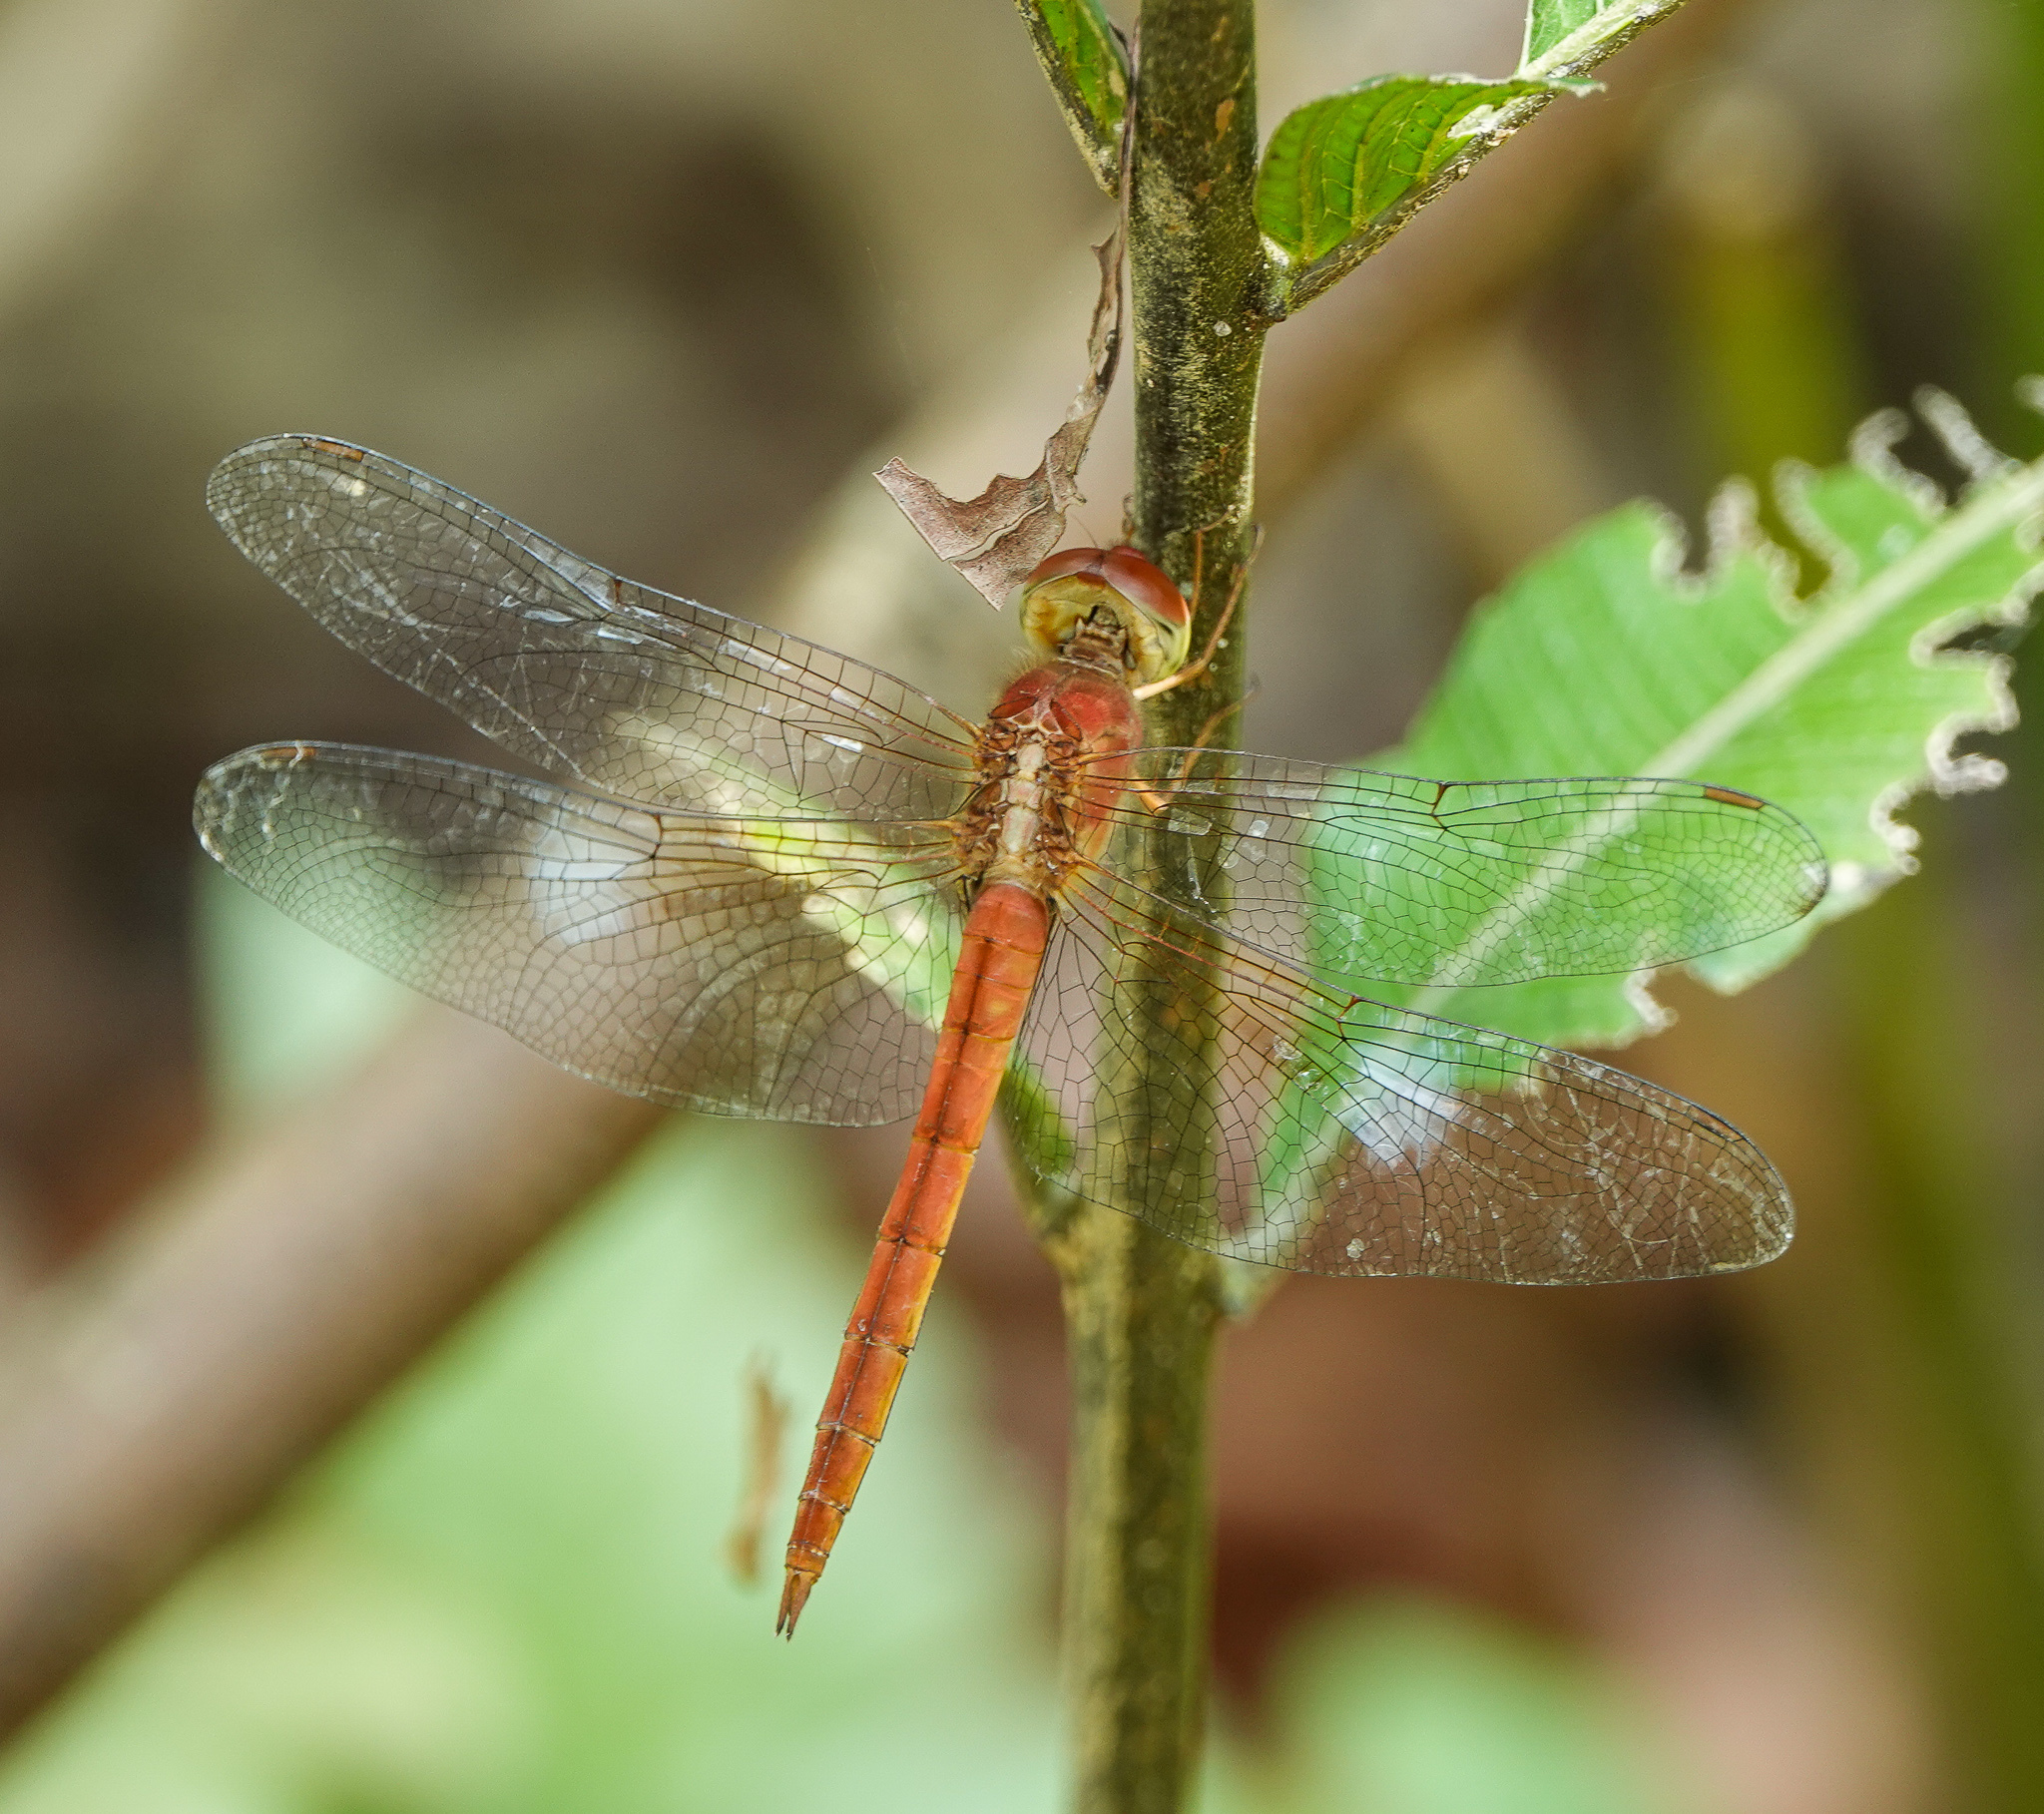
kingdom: Animalia
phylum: Arthropoda
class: Insecta
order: Odonata
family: Libellulidae
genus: Tholymis
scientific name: Tholymis tillarga
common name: Coral-tailed cloud wing
